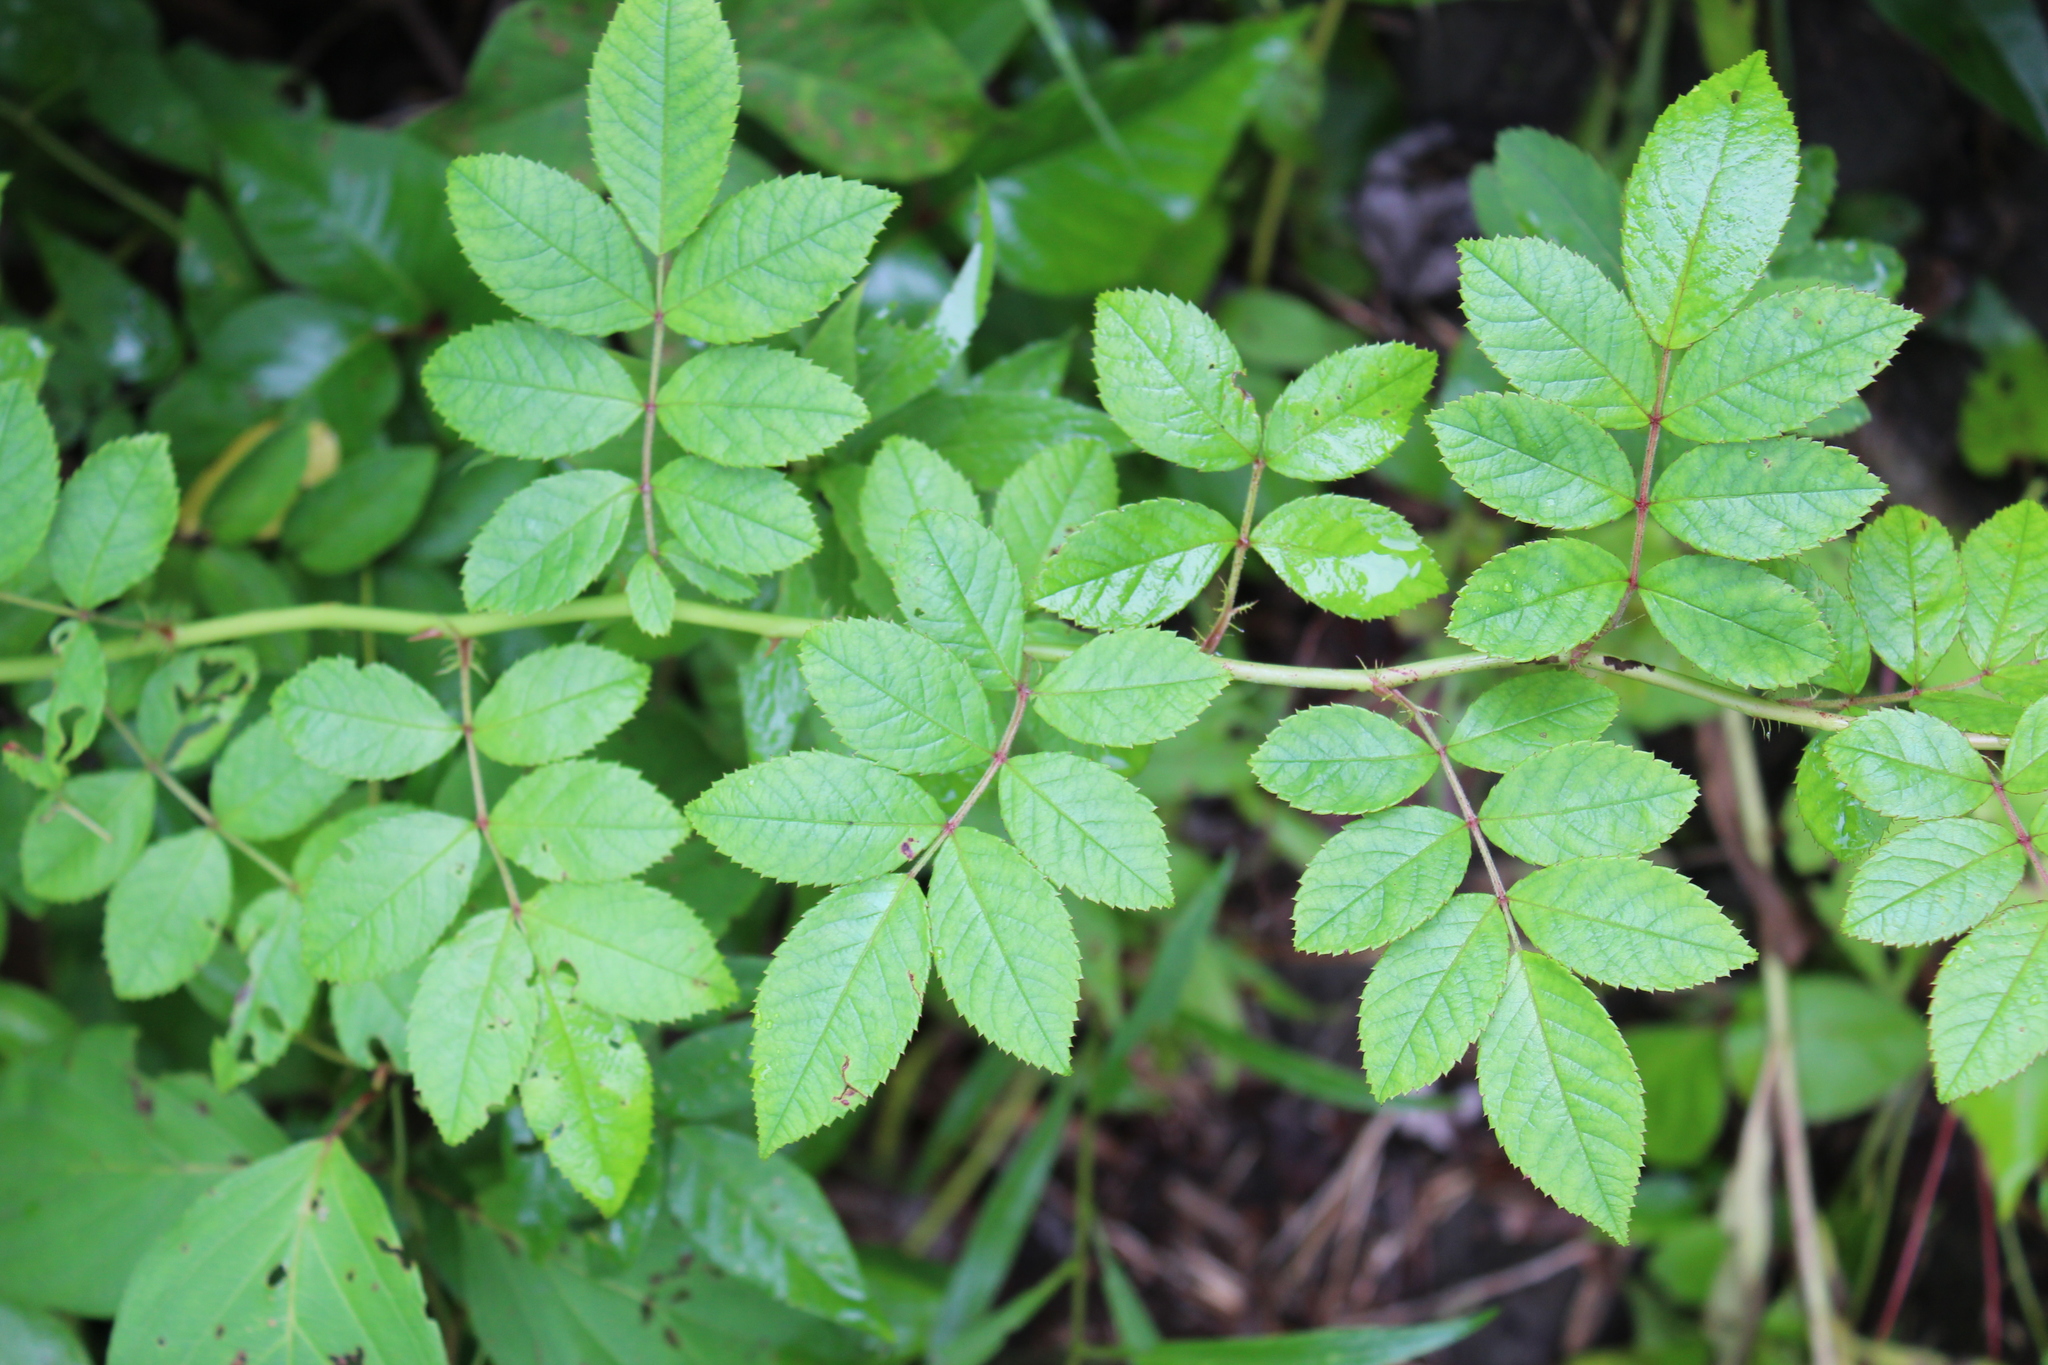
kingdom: Plantae
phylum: Tracheophyta
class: Magnoliopsida
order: Rosales
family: Rosaceae
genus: Rosa
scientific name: Rosa multiflora
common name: Multiflora rose
